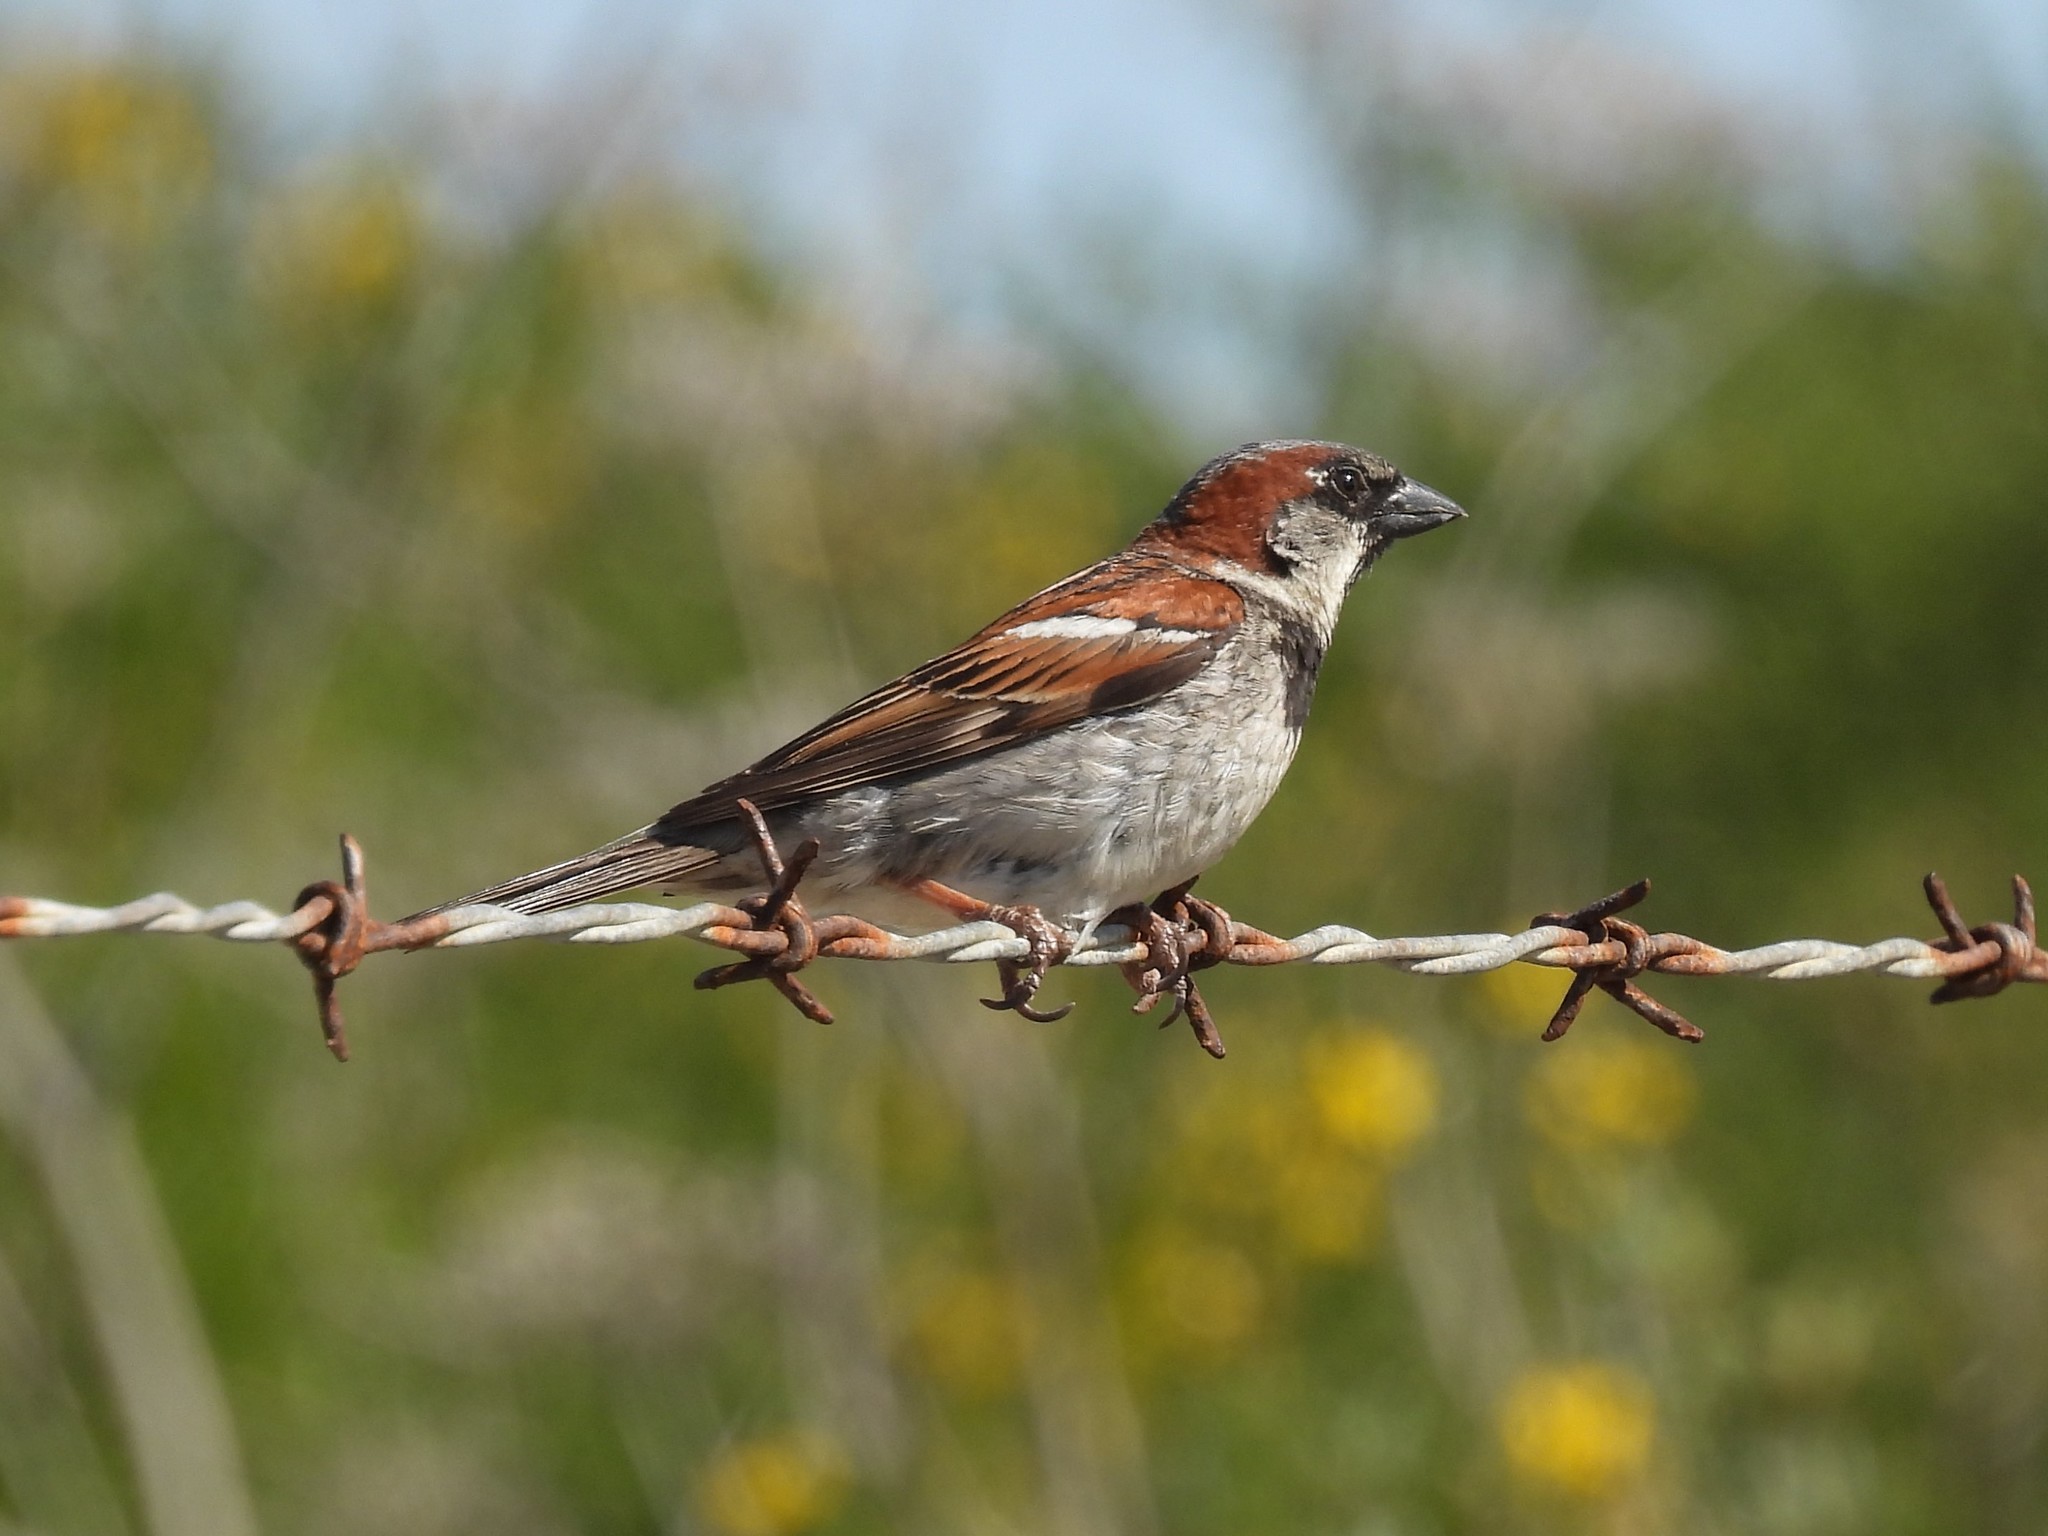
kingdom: Animalia
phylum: Chordata
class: Aves
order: Passeriformes
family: Passeridae
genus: Passer
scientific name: Passer domesticus
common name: House sparrow
